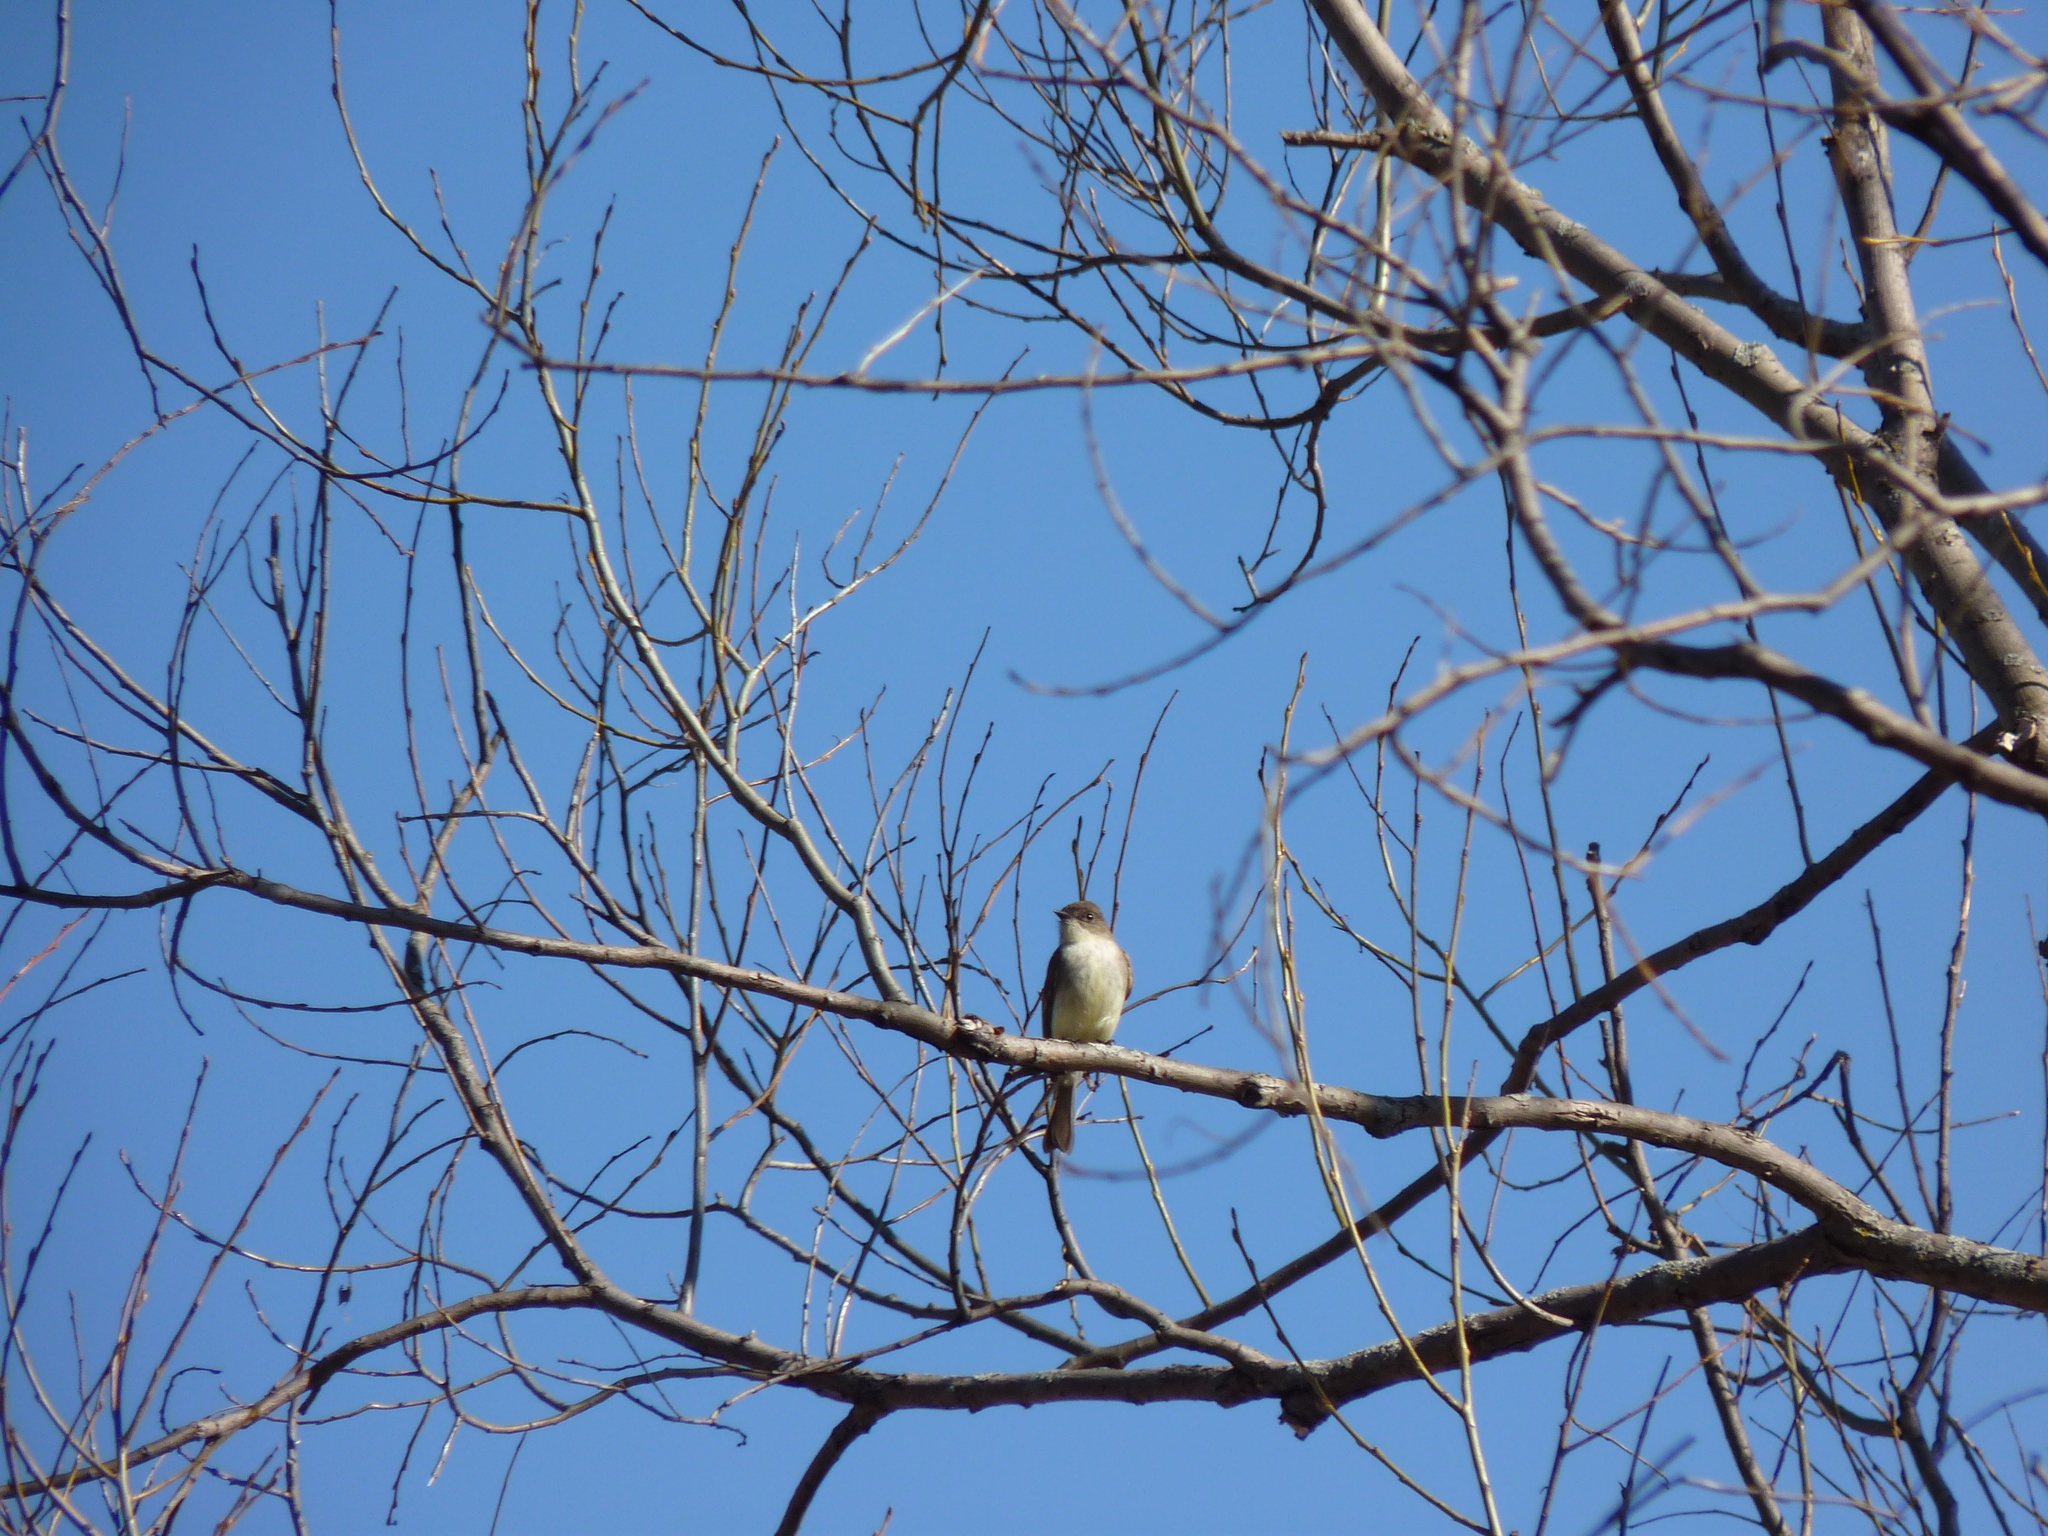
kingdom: Animalia
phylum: Chordata
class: Aves
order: Passeriformes
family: Tyrannidae
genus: Sayornis
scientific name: Sayornis phoebe
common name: Eastern phoebe
